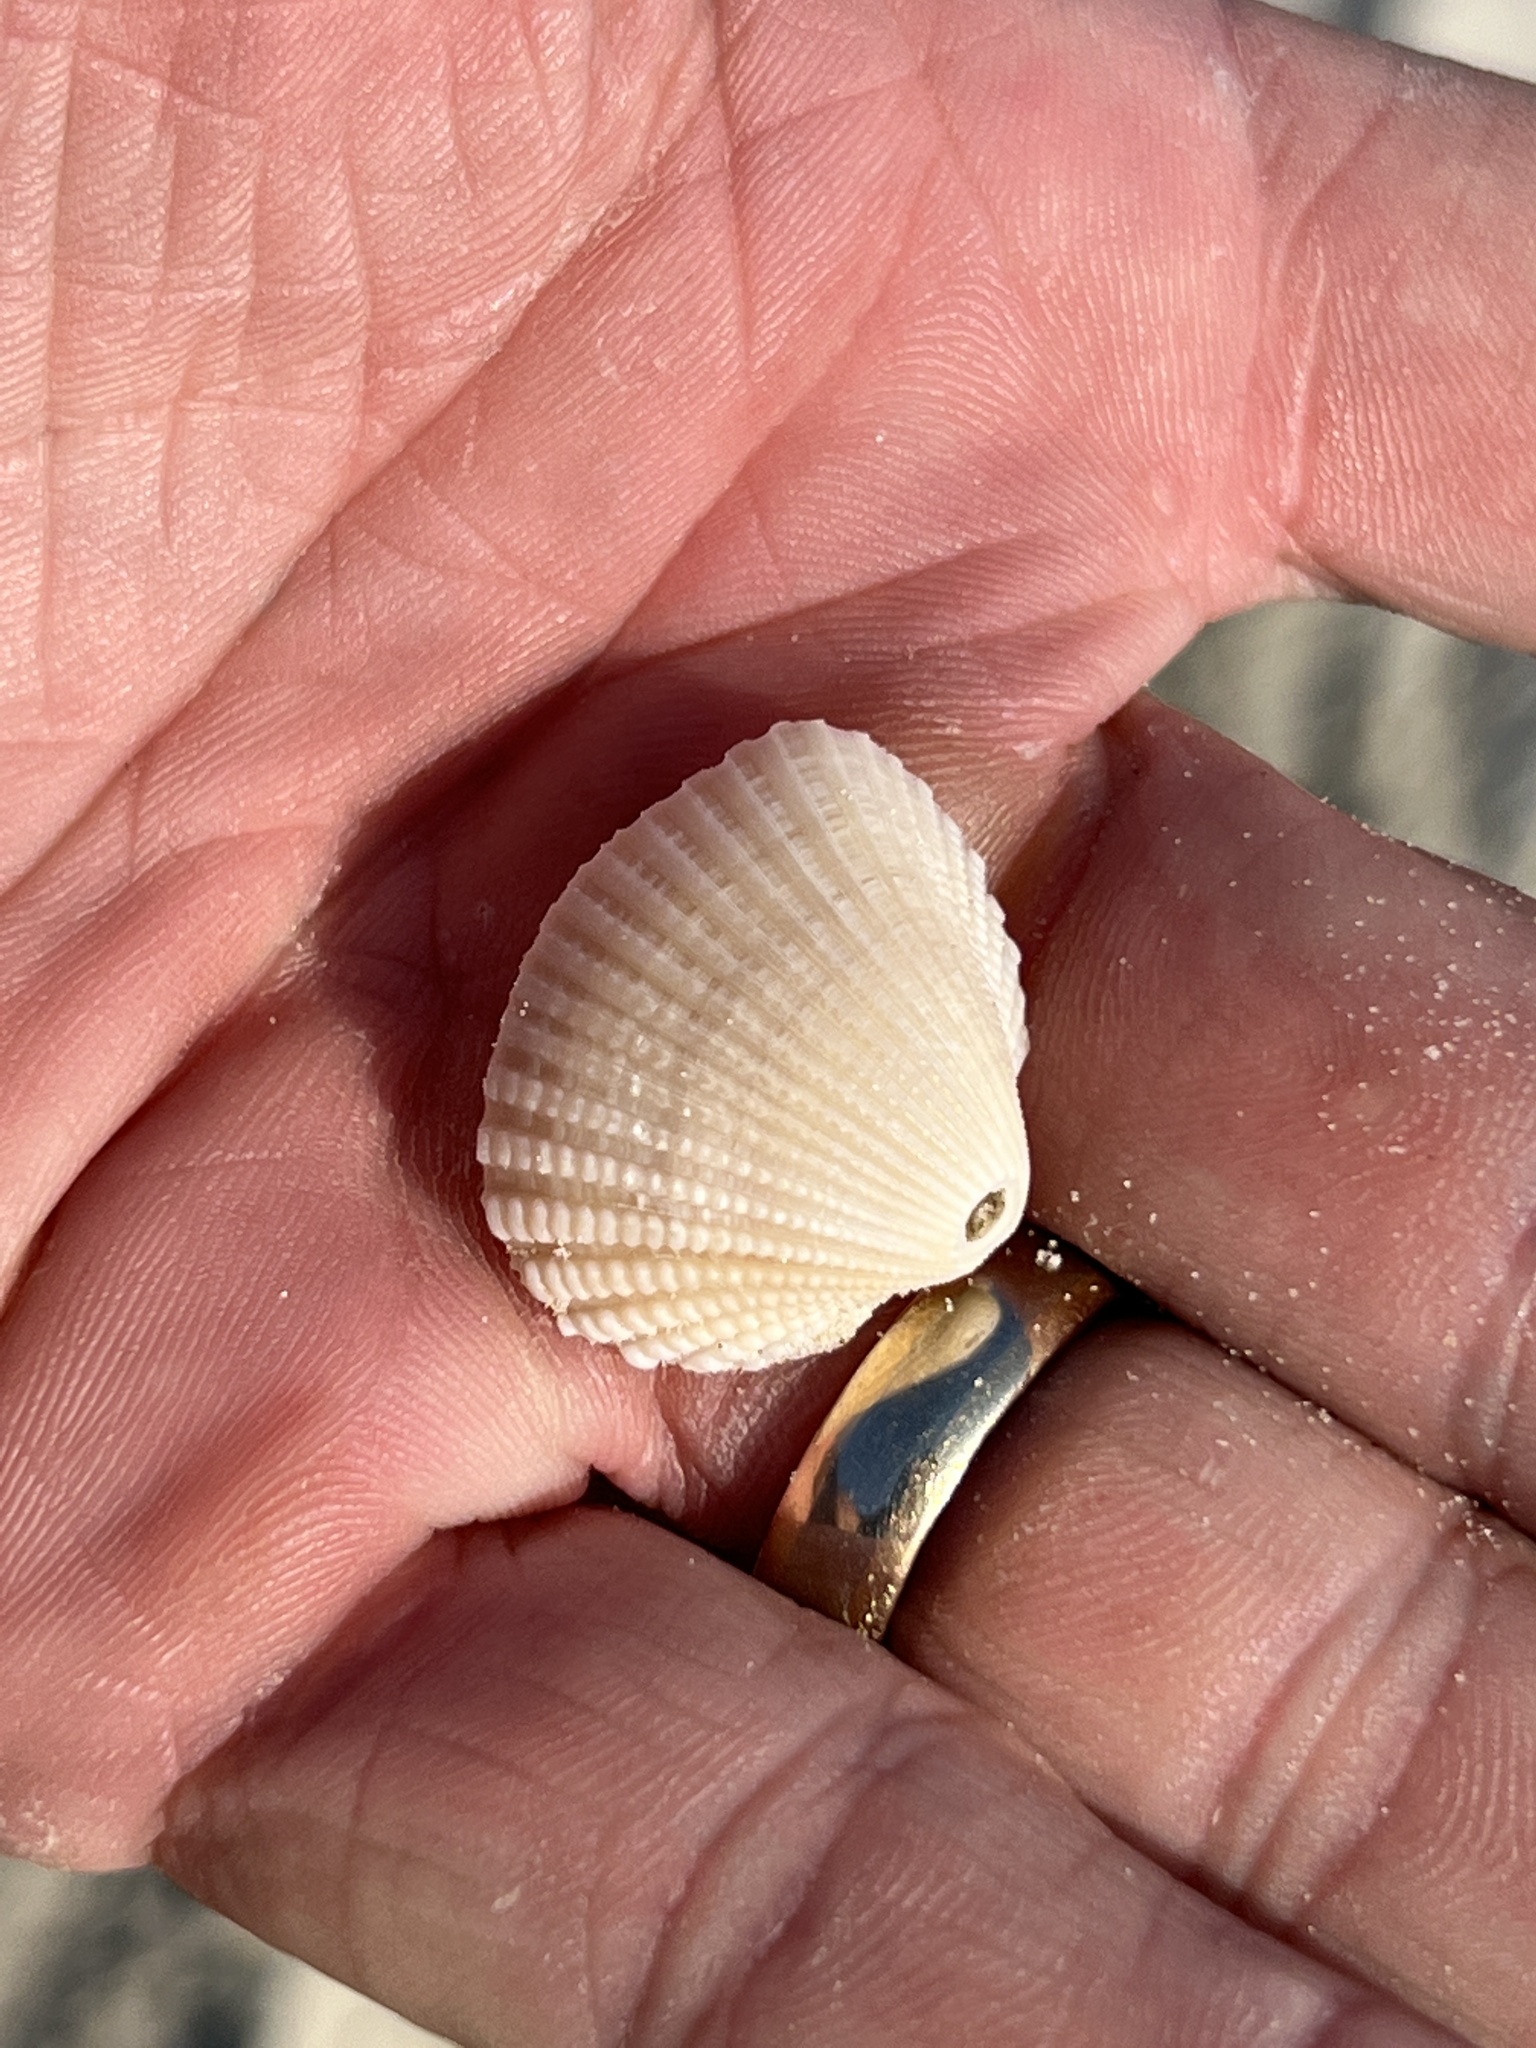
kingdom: Animalia
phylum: Mollusca
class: Bivalvia
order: Arcida
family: Arcidae
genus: Anadara
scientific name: Anadara brasiliana
